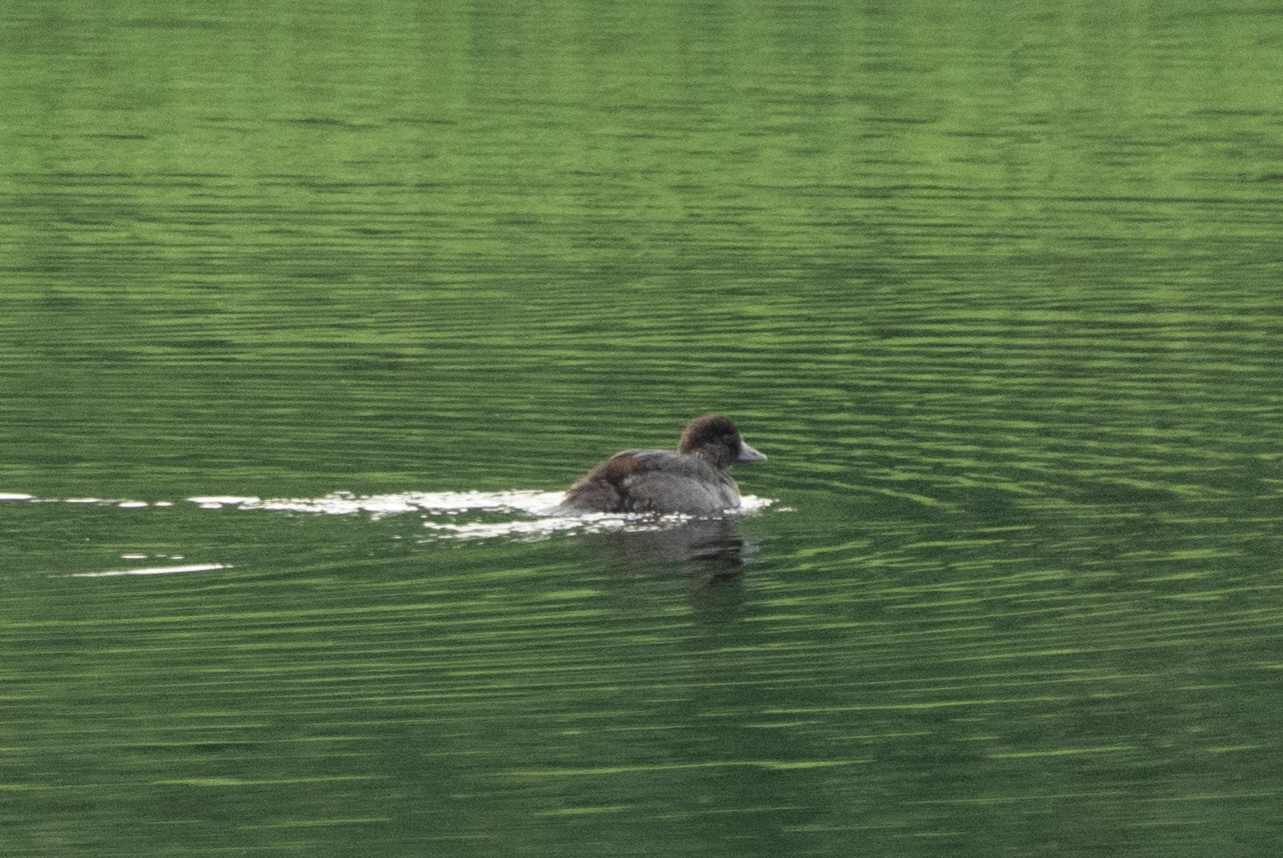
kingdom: Animalia
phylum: Chordata
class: Aves
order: Anseriformes
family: Anatidae
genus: Bucephala
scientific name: Bucephala clangula
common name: Common goldeneye
